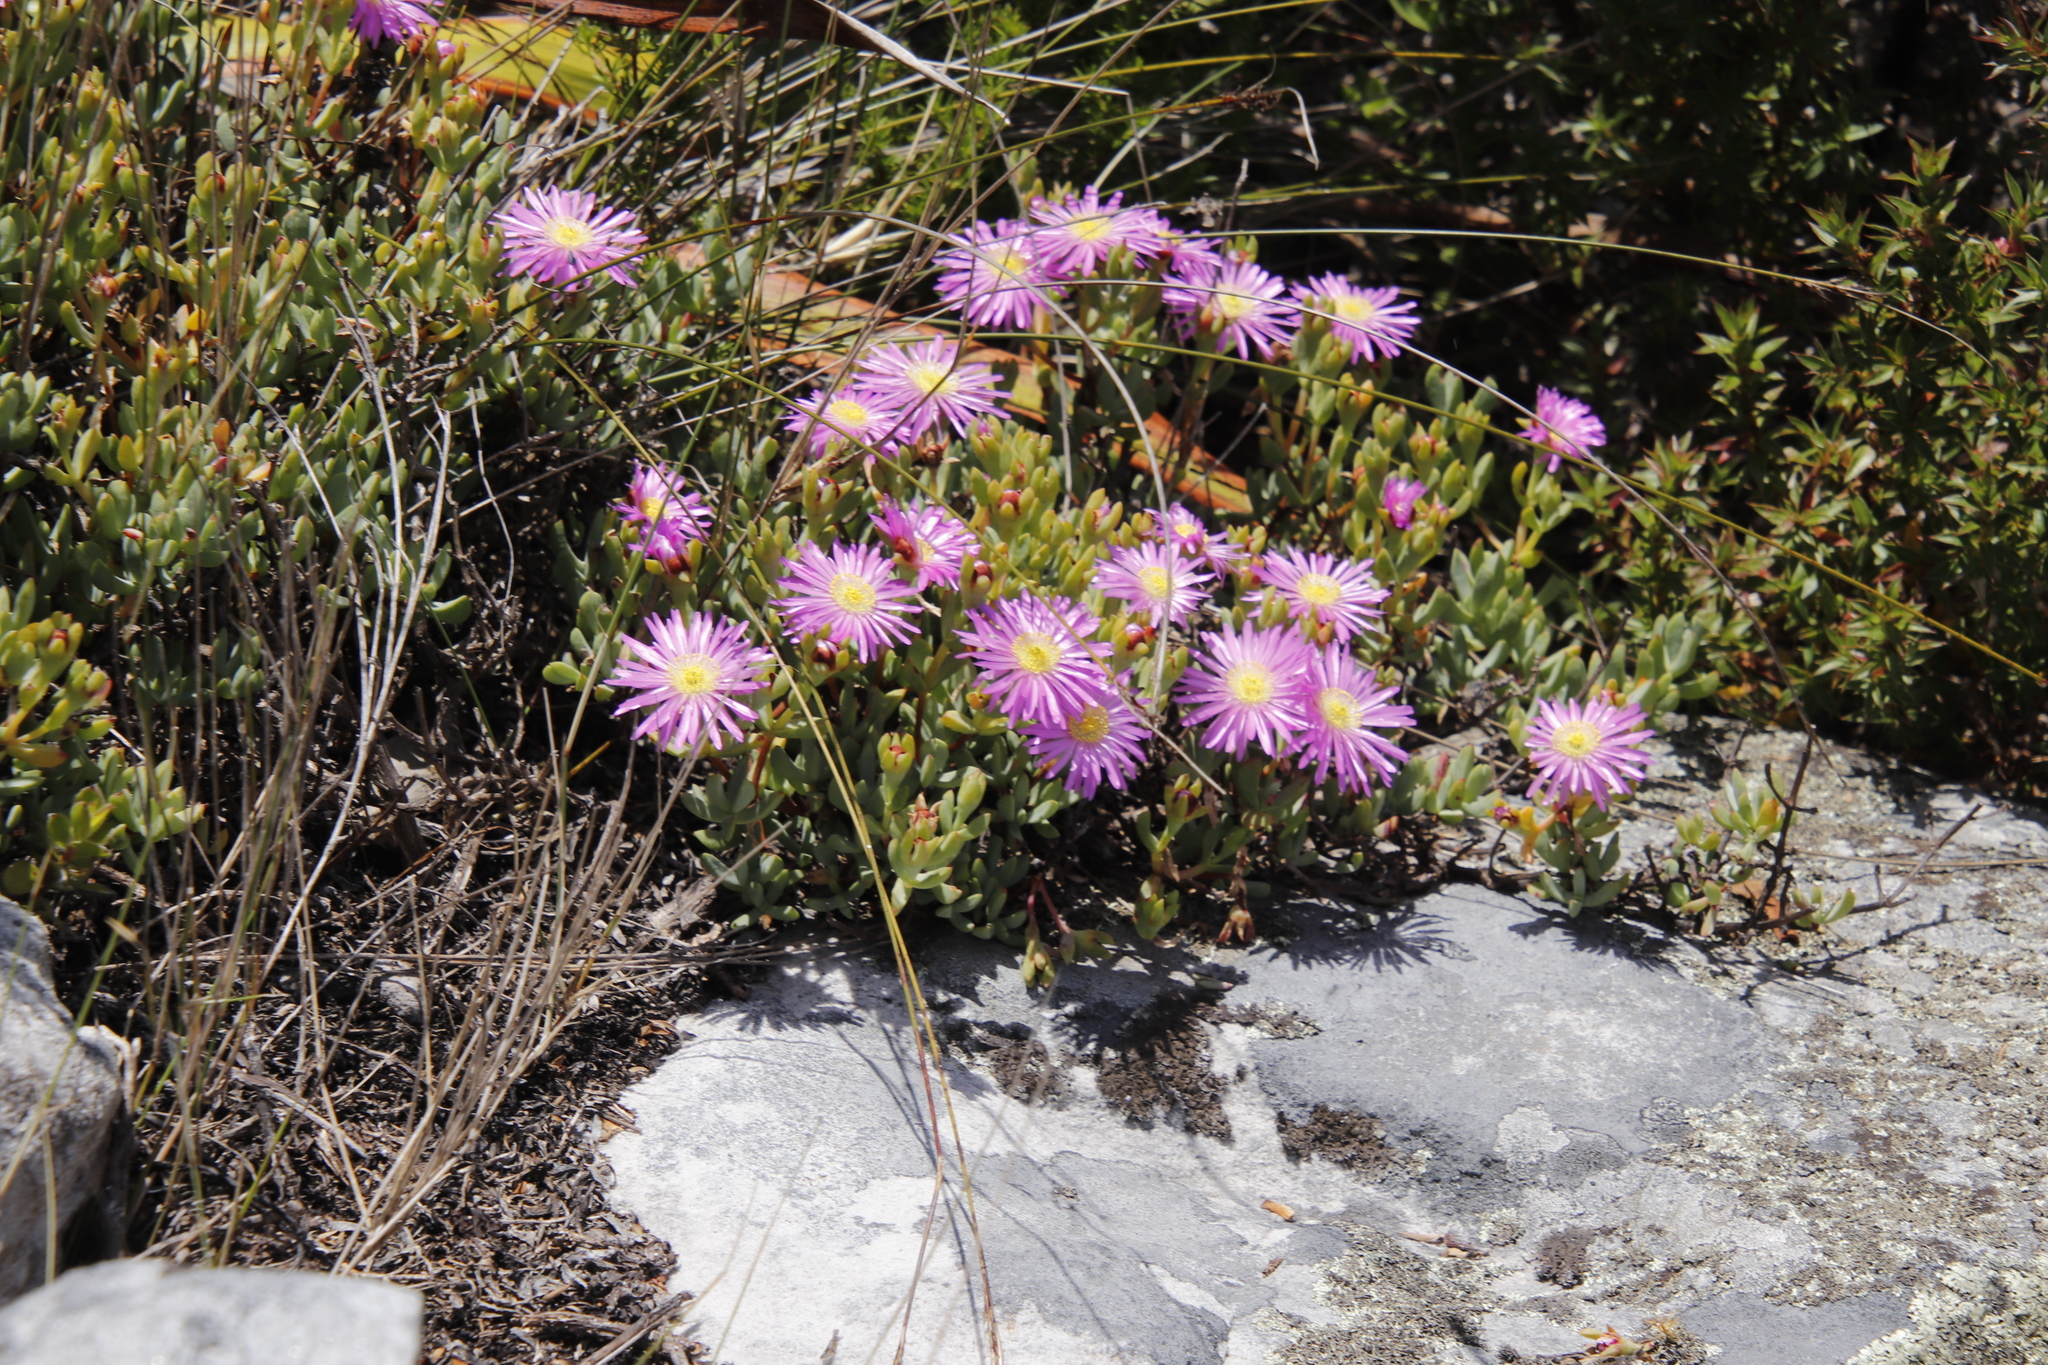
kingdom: Plantae
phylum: Tracheophyta
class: Magnoliopsida
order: Caryophyllales
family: Aizoaceae
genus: Oscularia
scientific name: Oscularia falciformis
